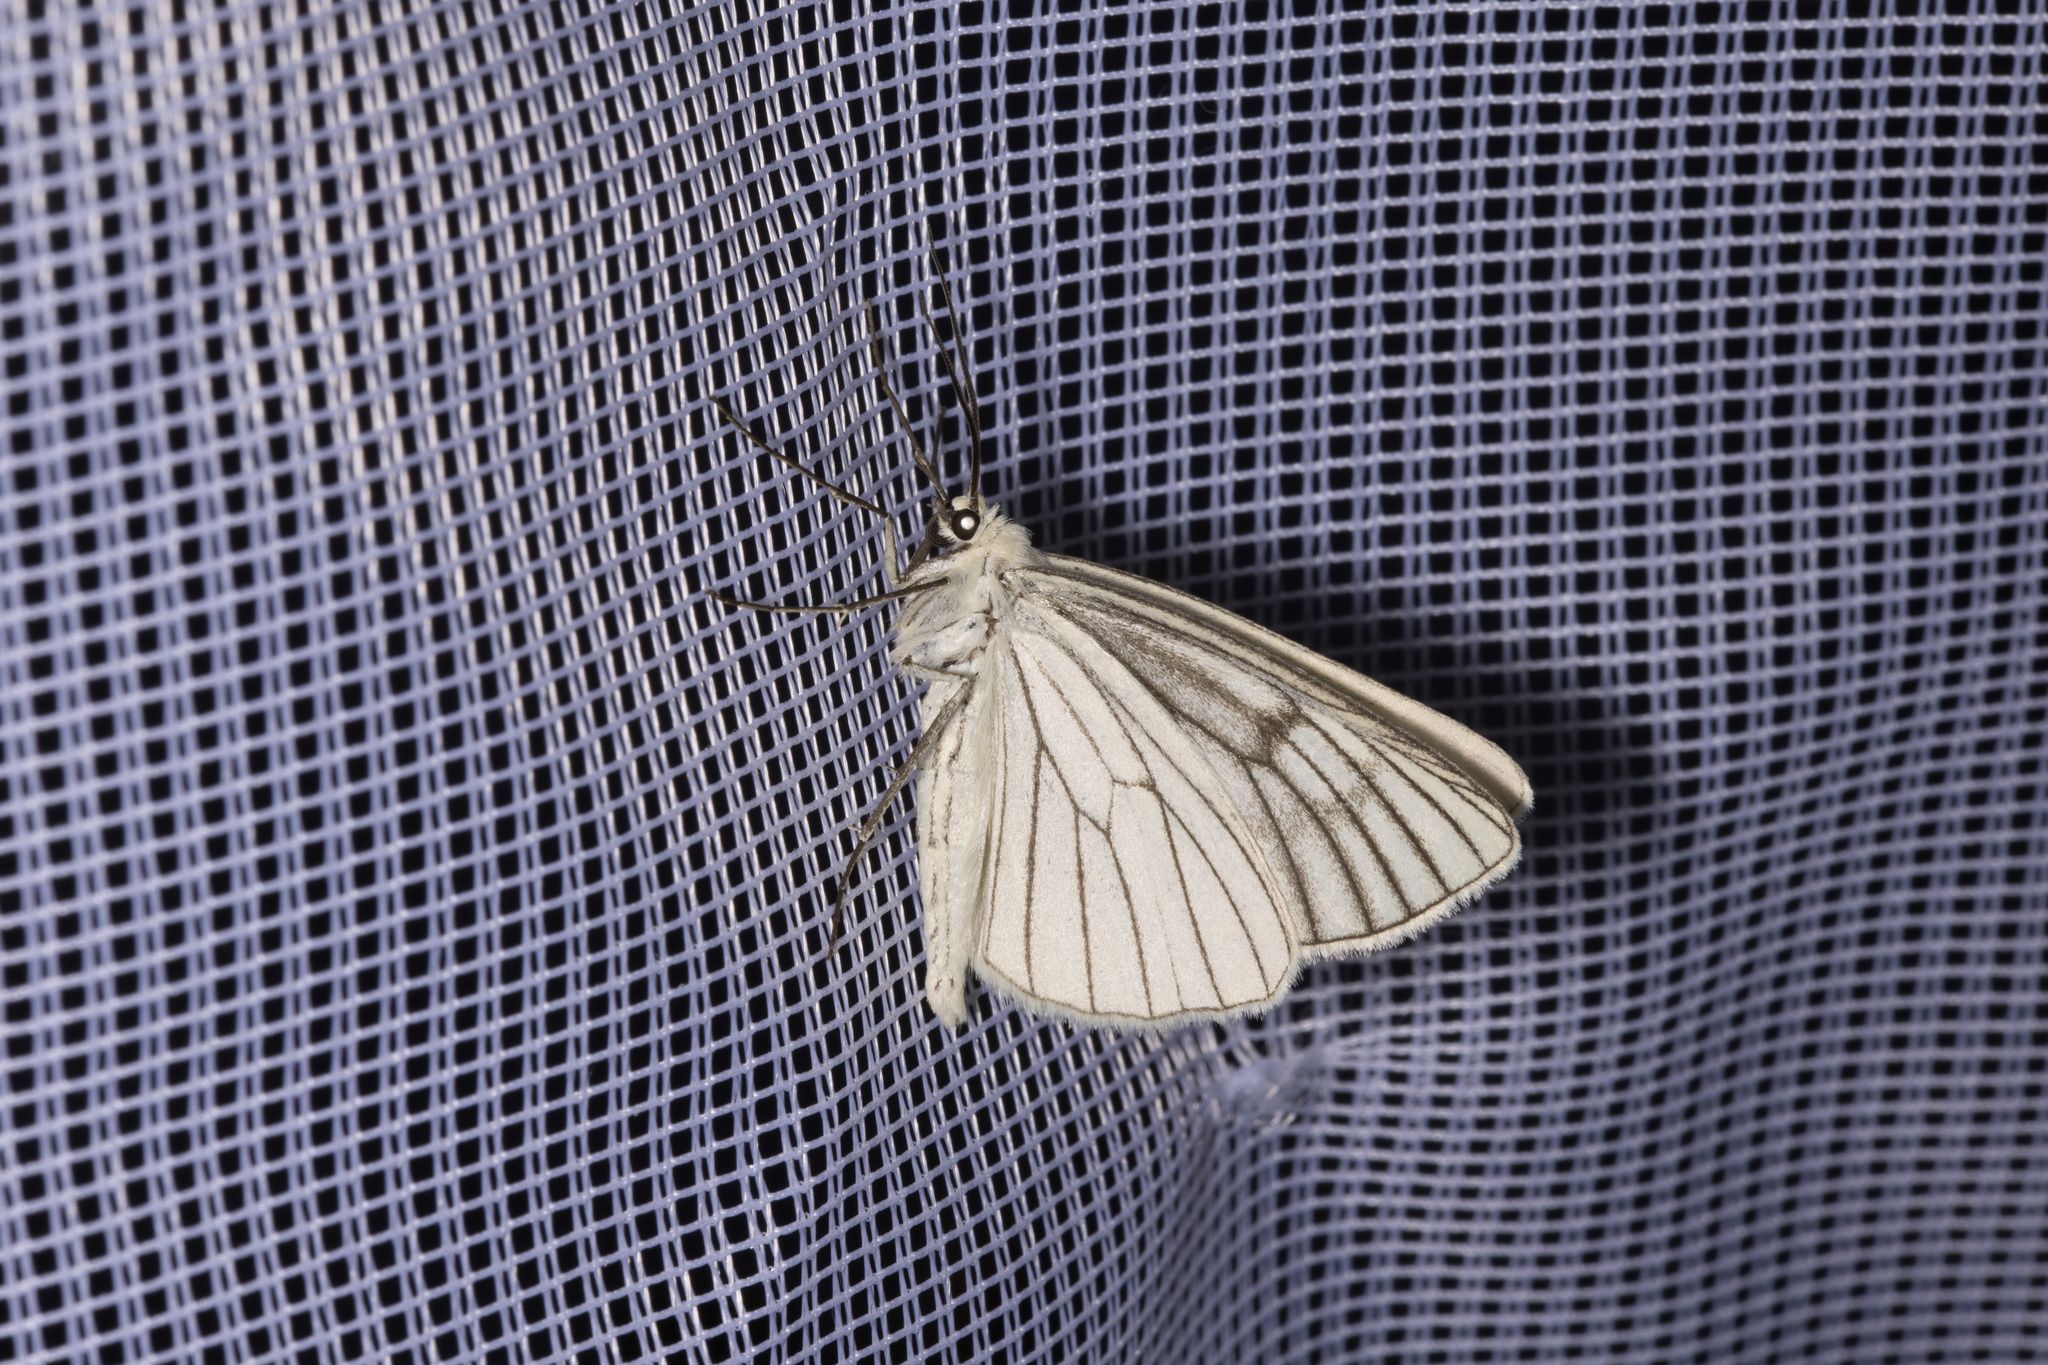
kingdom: Animalia
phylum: Arthropoda
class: Insecta
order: Lepidoptera
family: Geometridae
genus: Siona
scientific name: Siona lineata
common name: Black-veined moth
